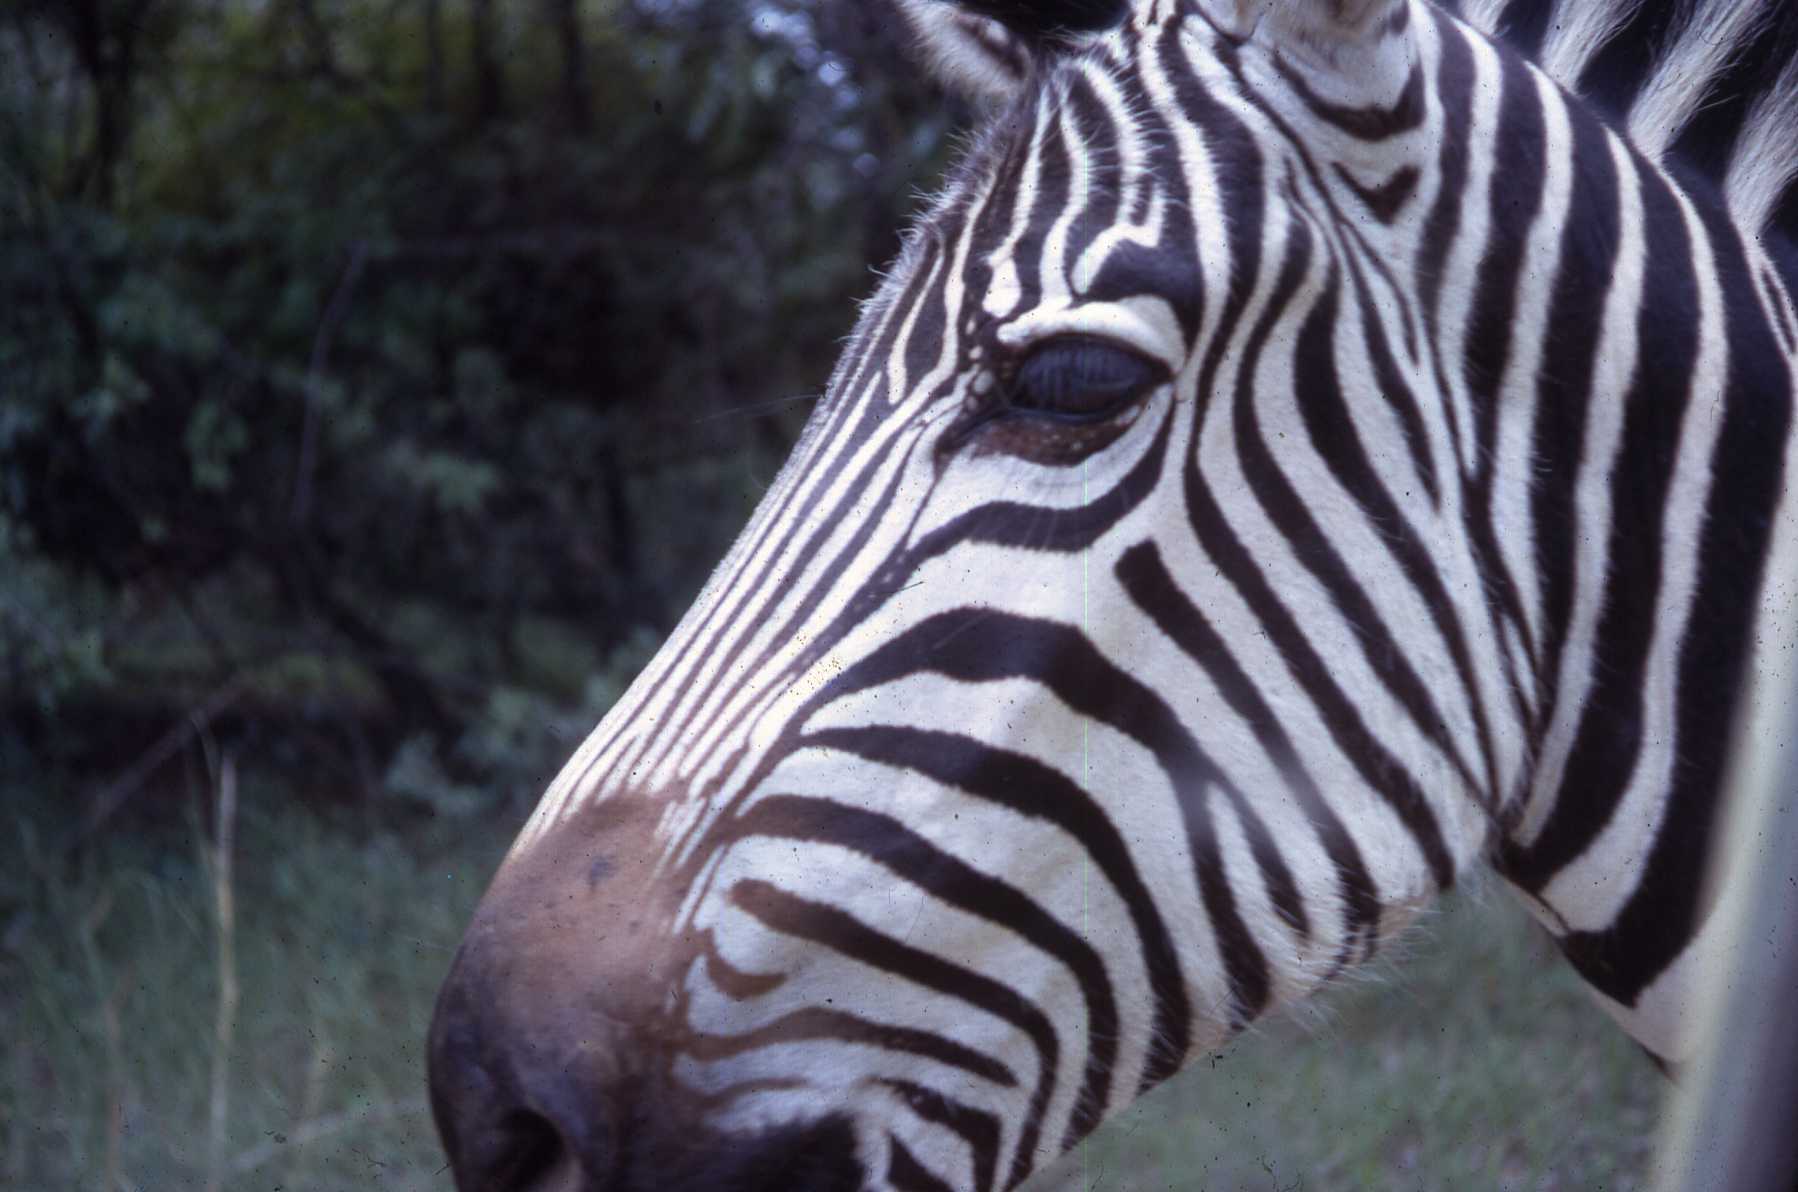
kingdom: Animalia
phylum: Chordata
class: Mammalia
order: Perissodactyla
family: Equidae
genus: Equus
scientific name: Equus quagga
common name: Plains zebra
